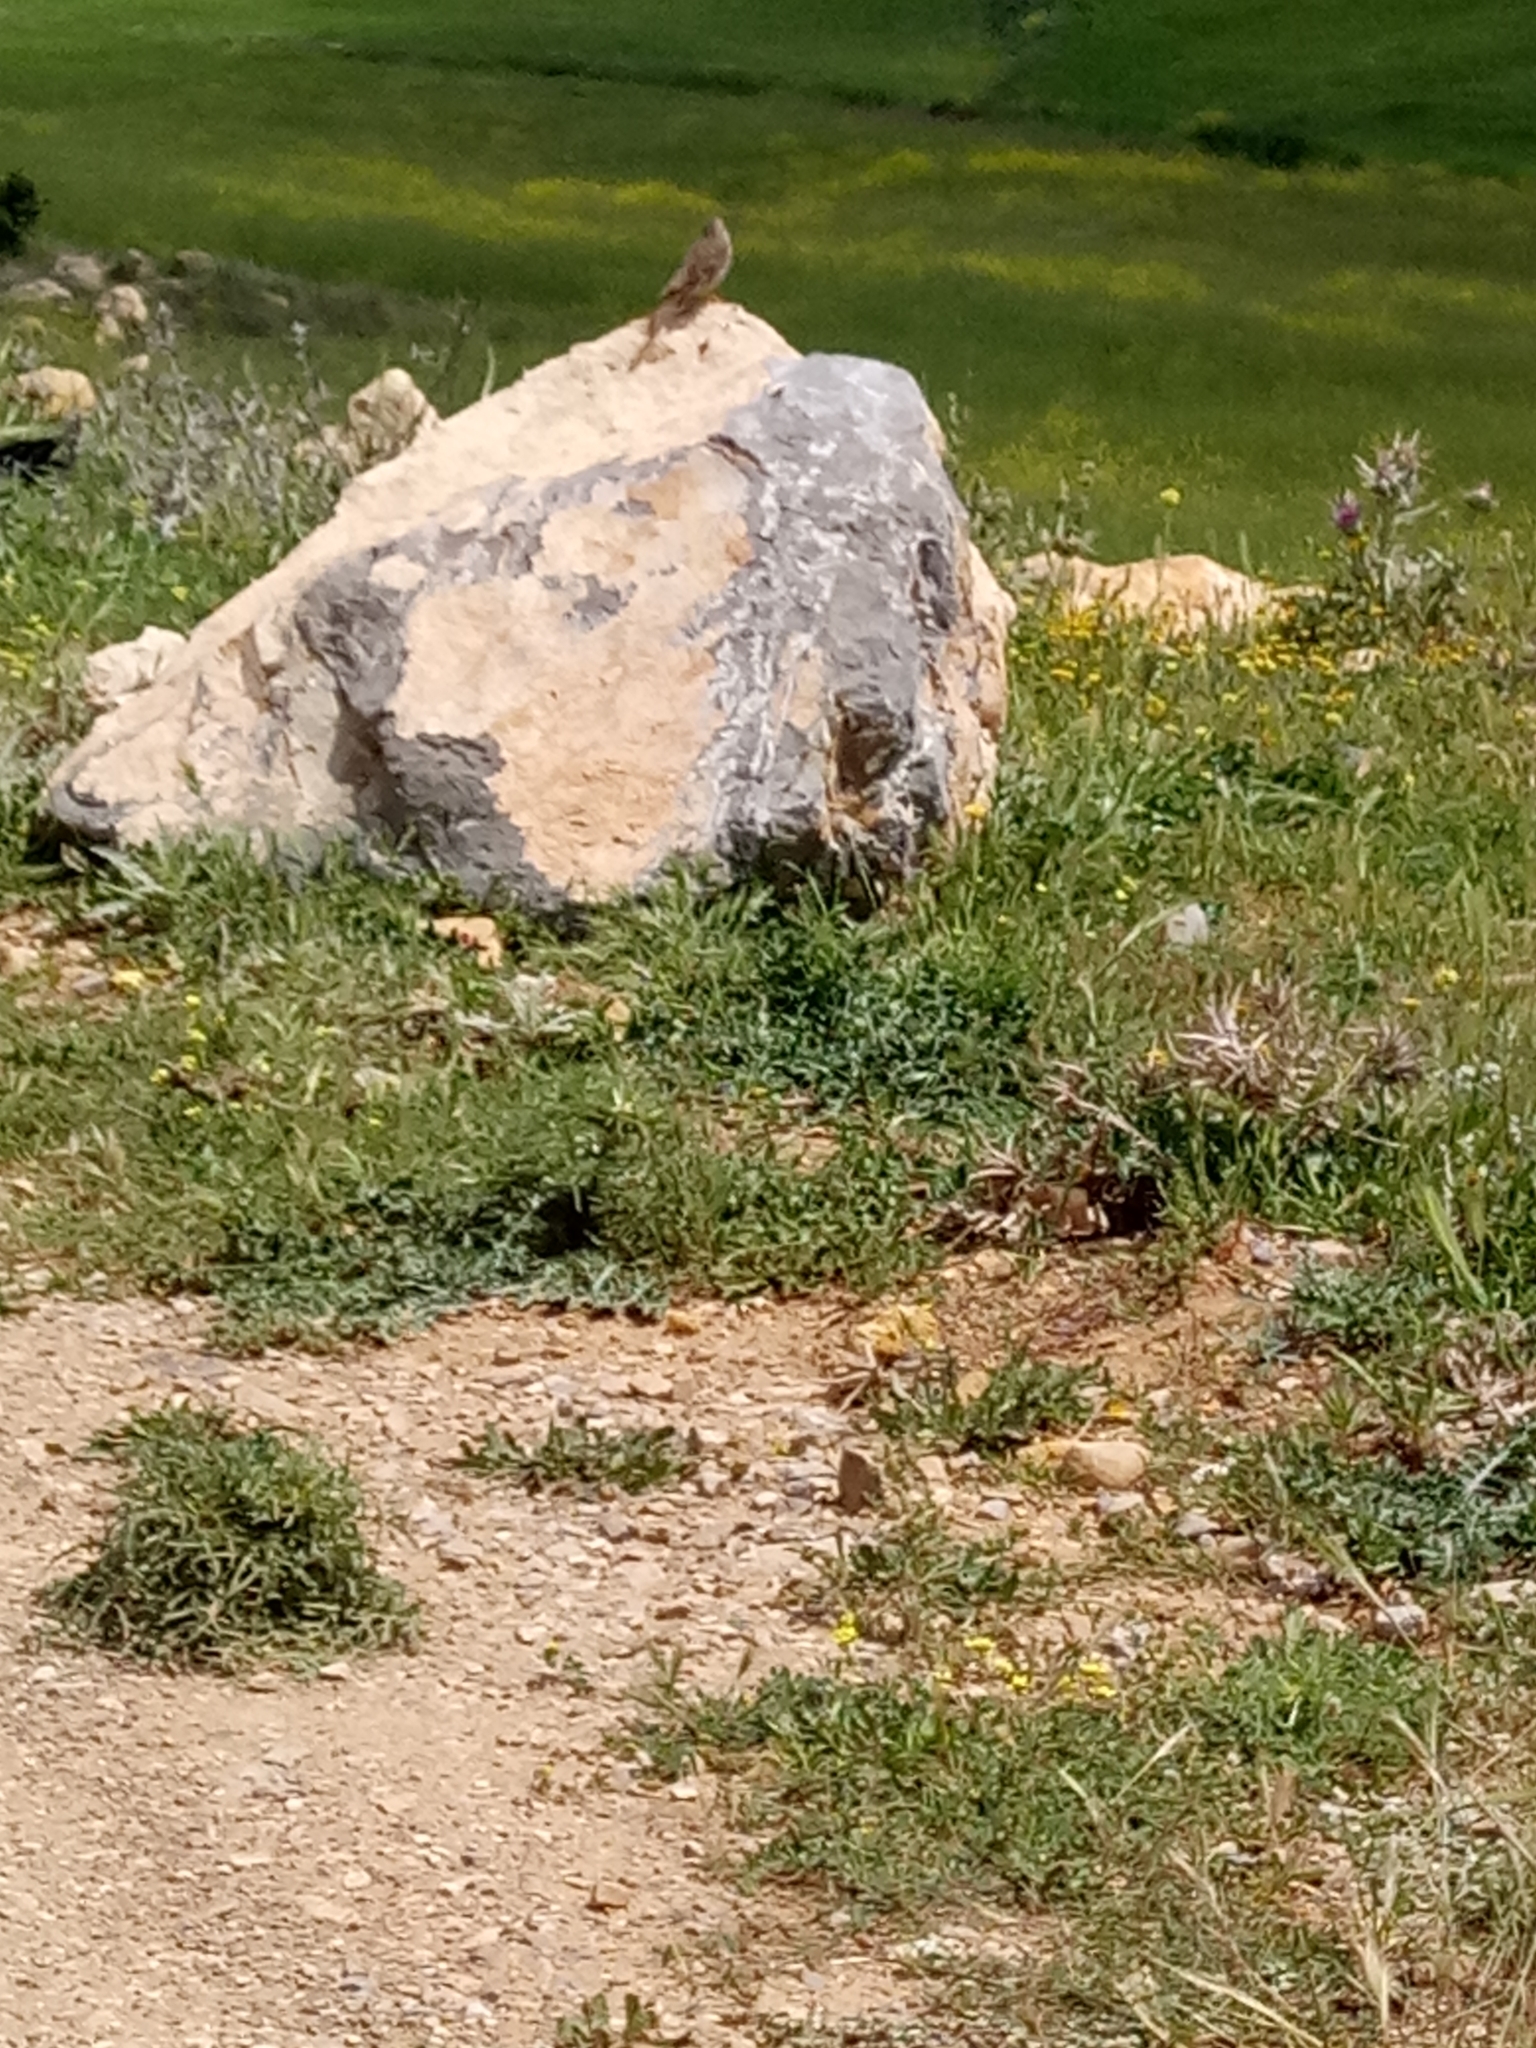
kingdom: Animalia
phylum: Chordata
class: Aves
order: Passeriformes
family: Emberizidae
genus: Emberiza
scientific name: Emberiza calandra
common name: Corn bunting
